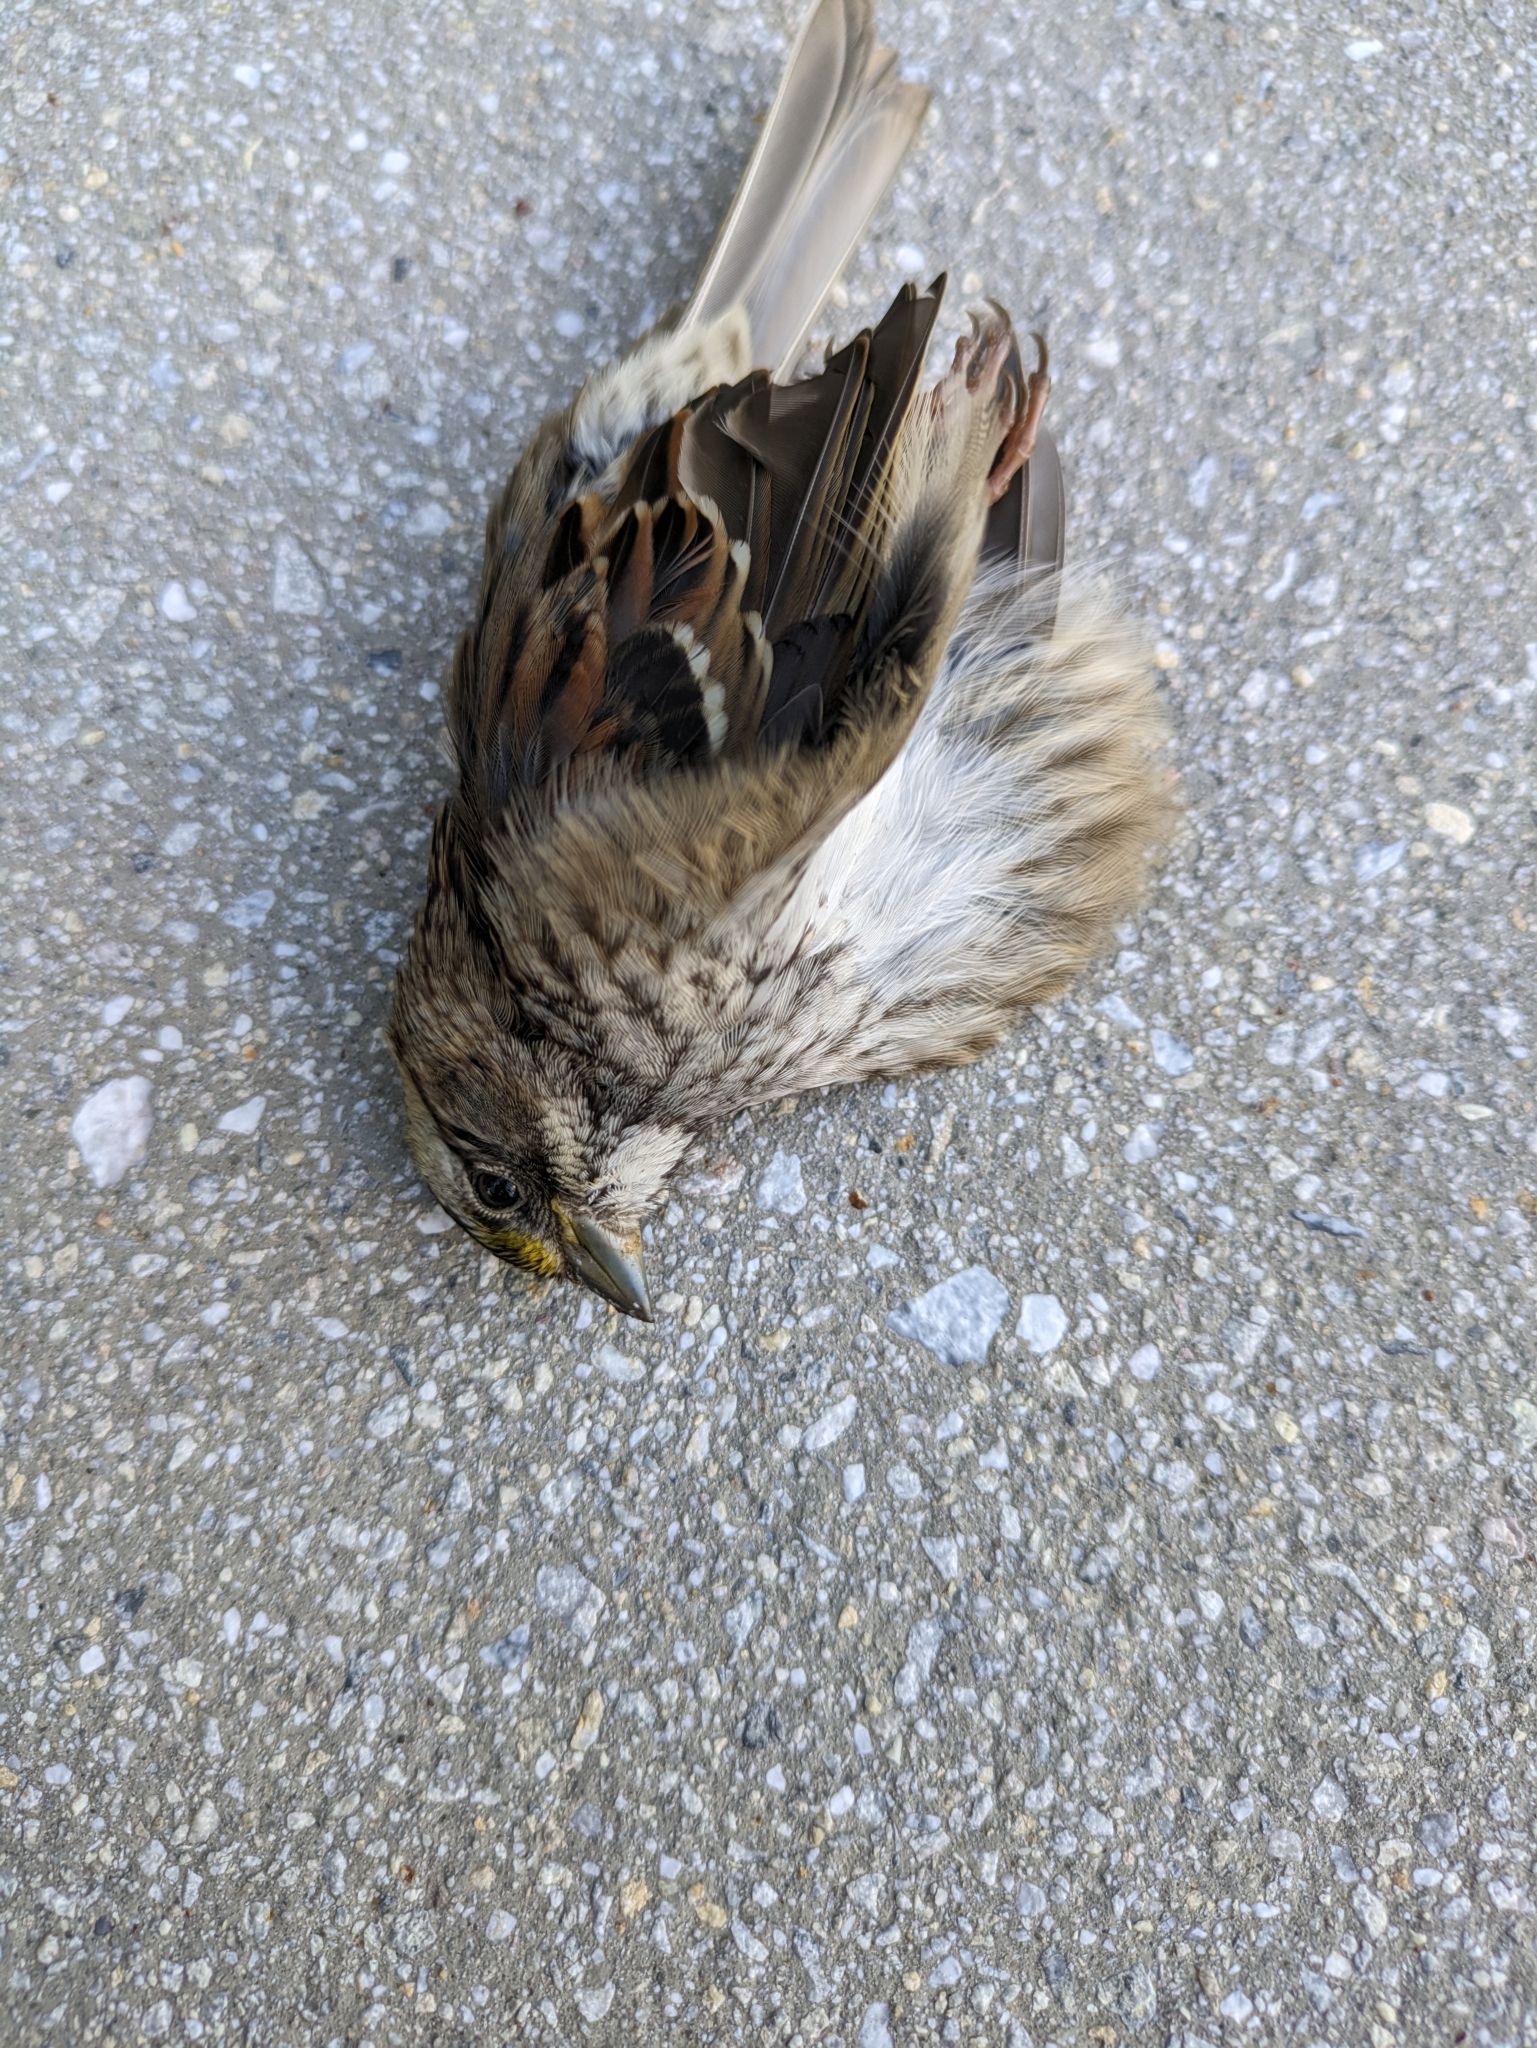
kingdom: Animalia
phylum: Chordata
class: Aves
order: Passeriformes
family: Passerellidae
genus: Zonotrichia
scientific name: Zonotrichia albicollis
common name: White-throated sparrow
